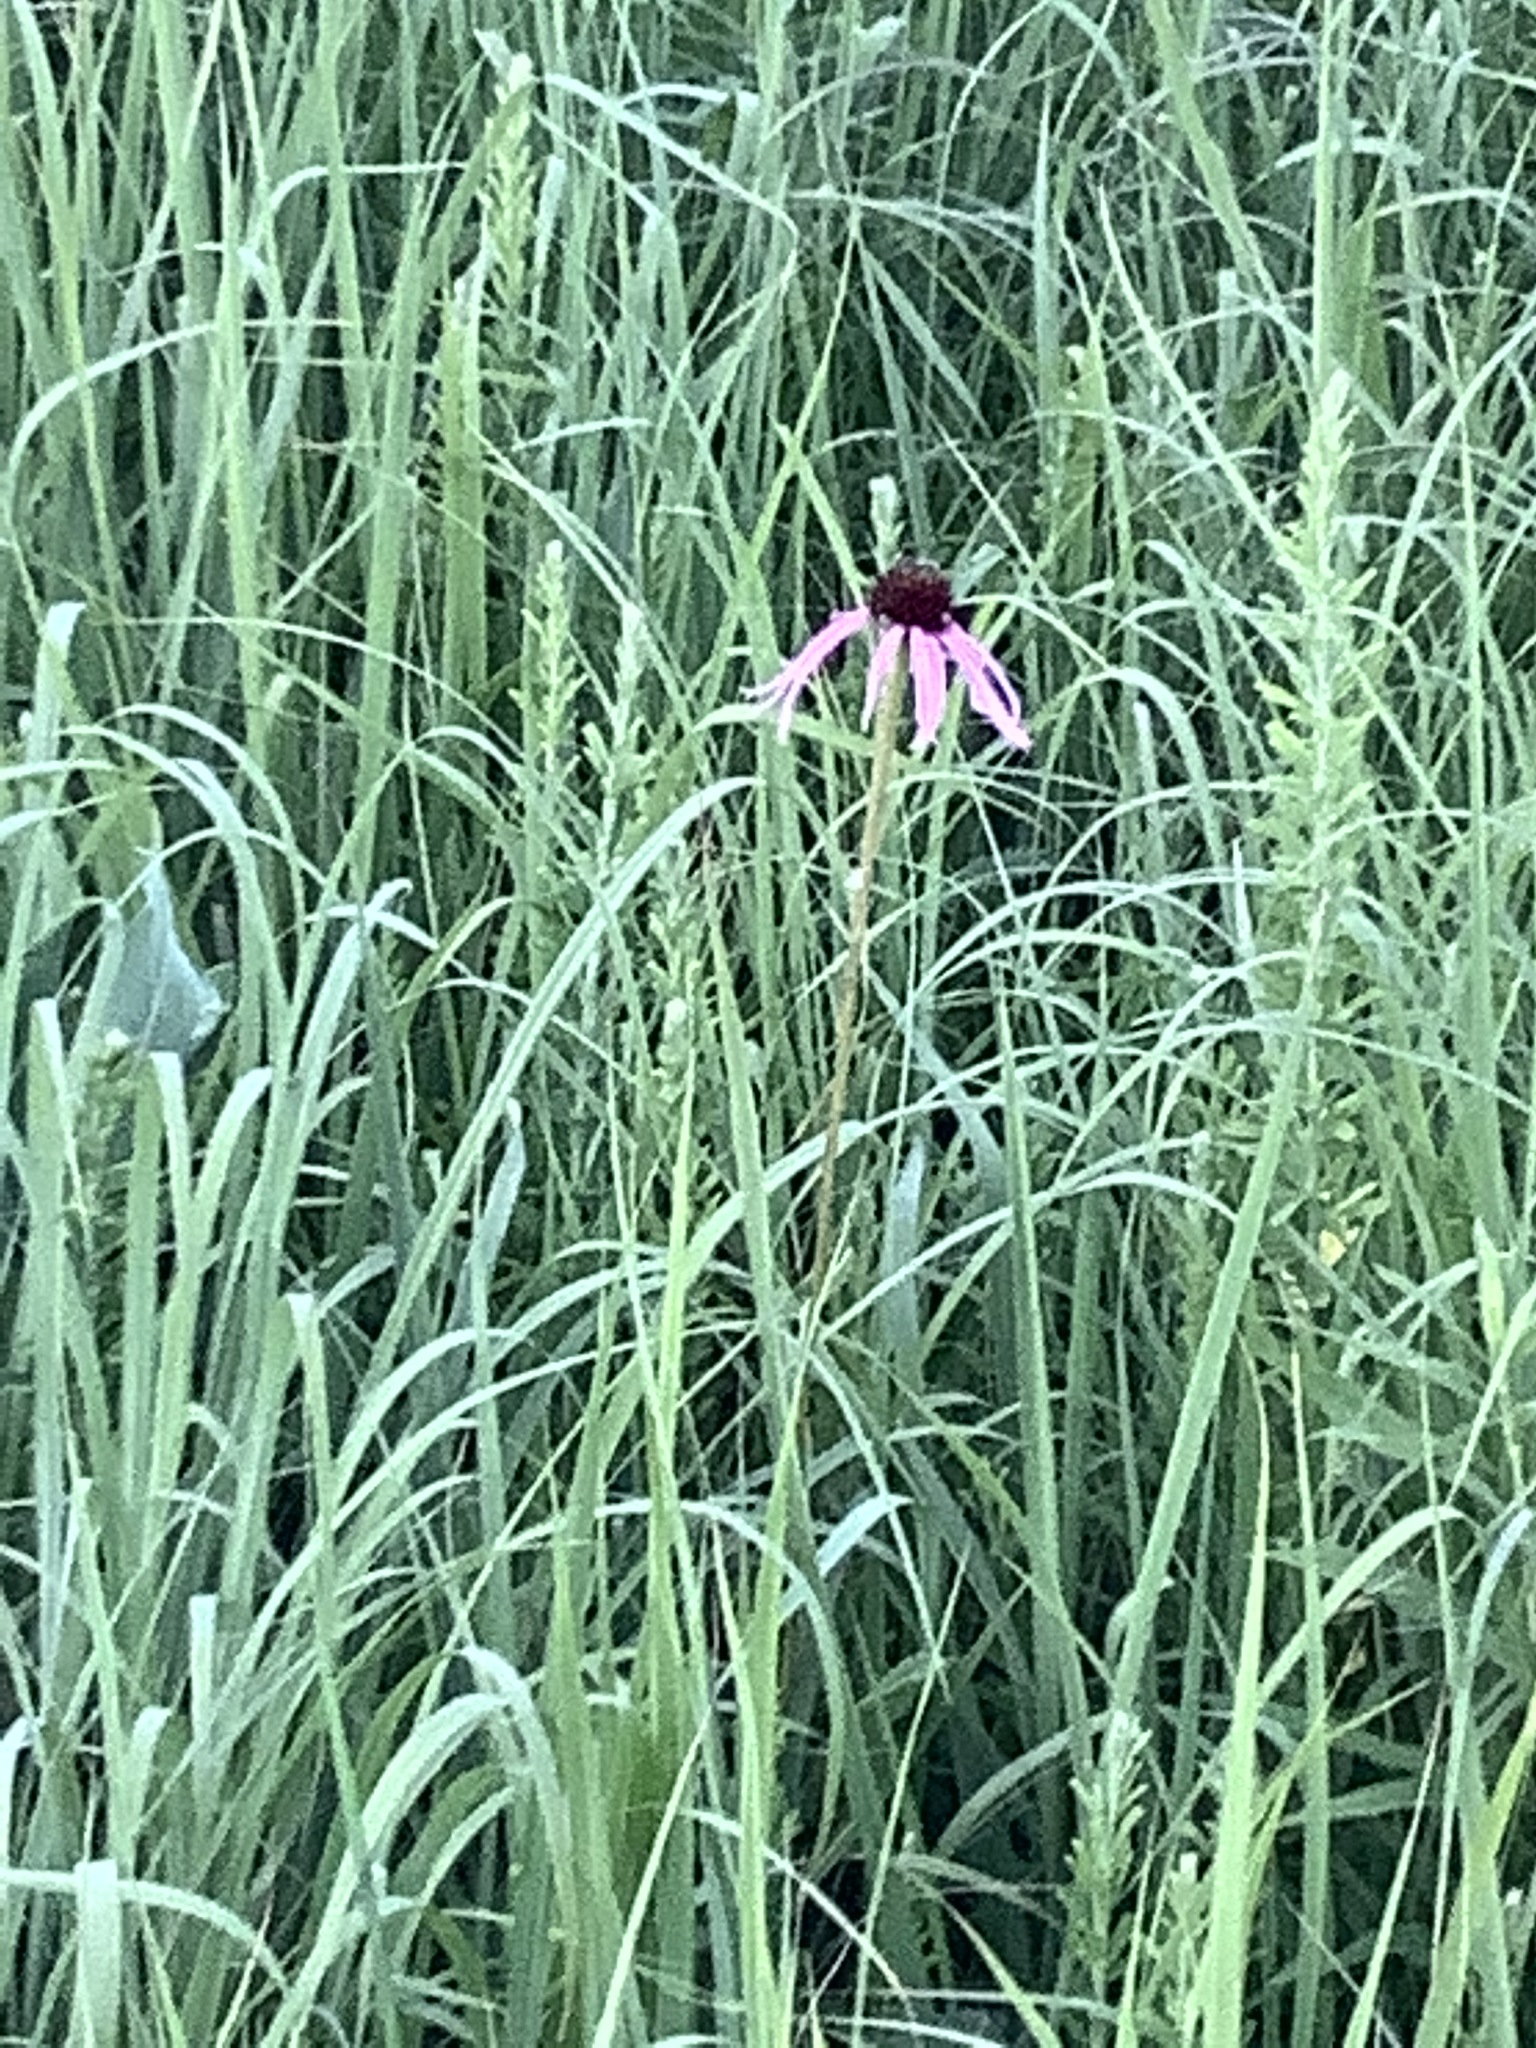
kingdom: Plantae
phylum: Tracheophyta
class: Magnoliopsida
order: Asterales
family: Asteraceae
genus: Echinacea
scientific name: Echinacea pallida
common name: Pale echinacea
